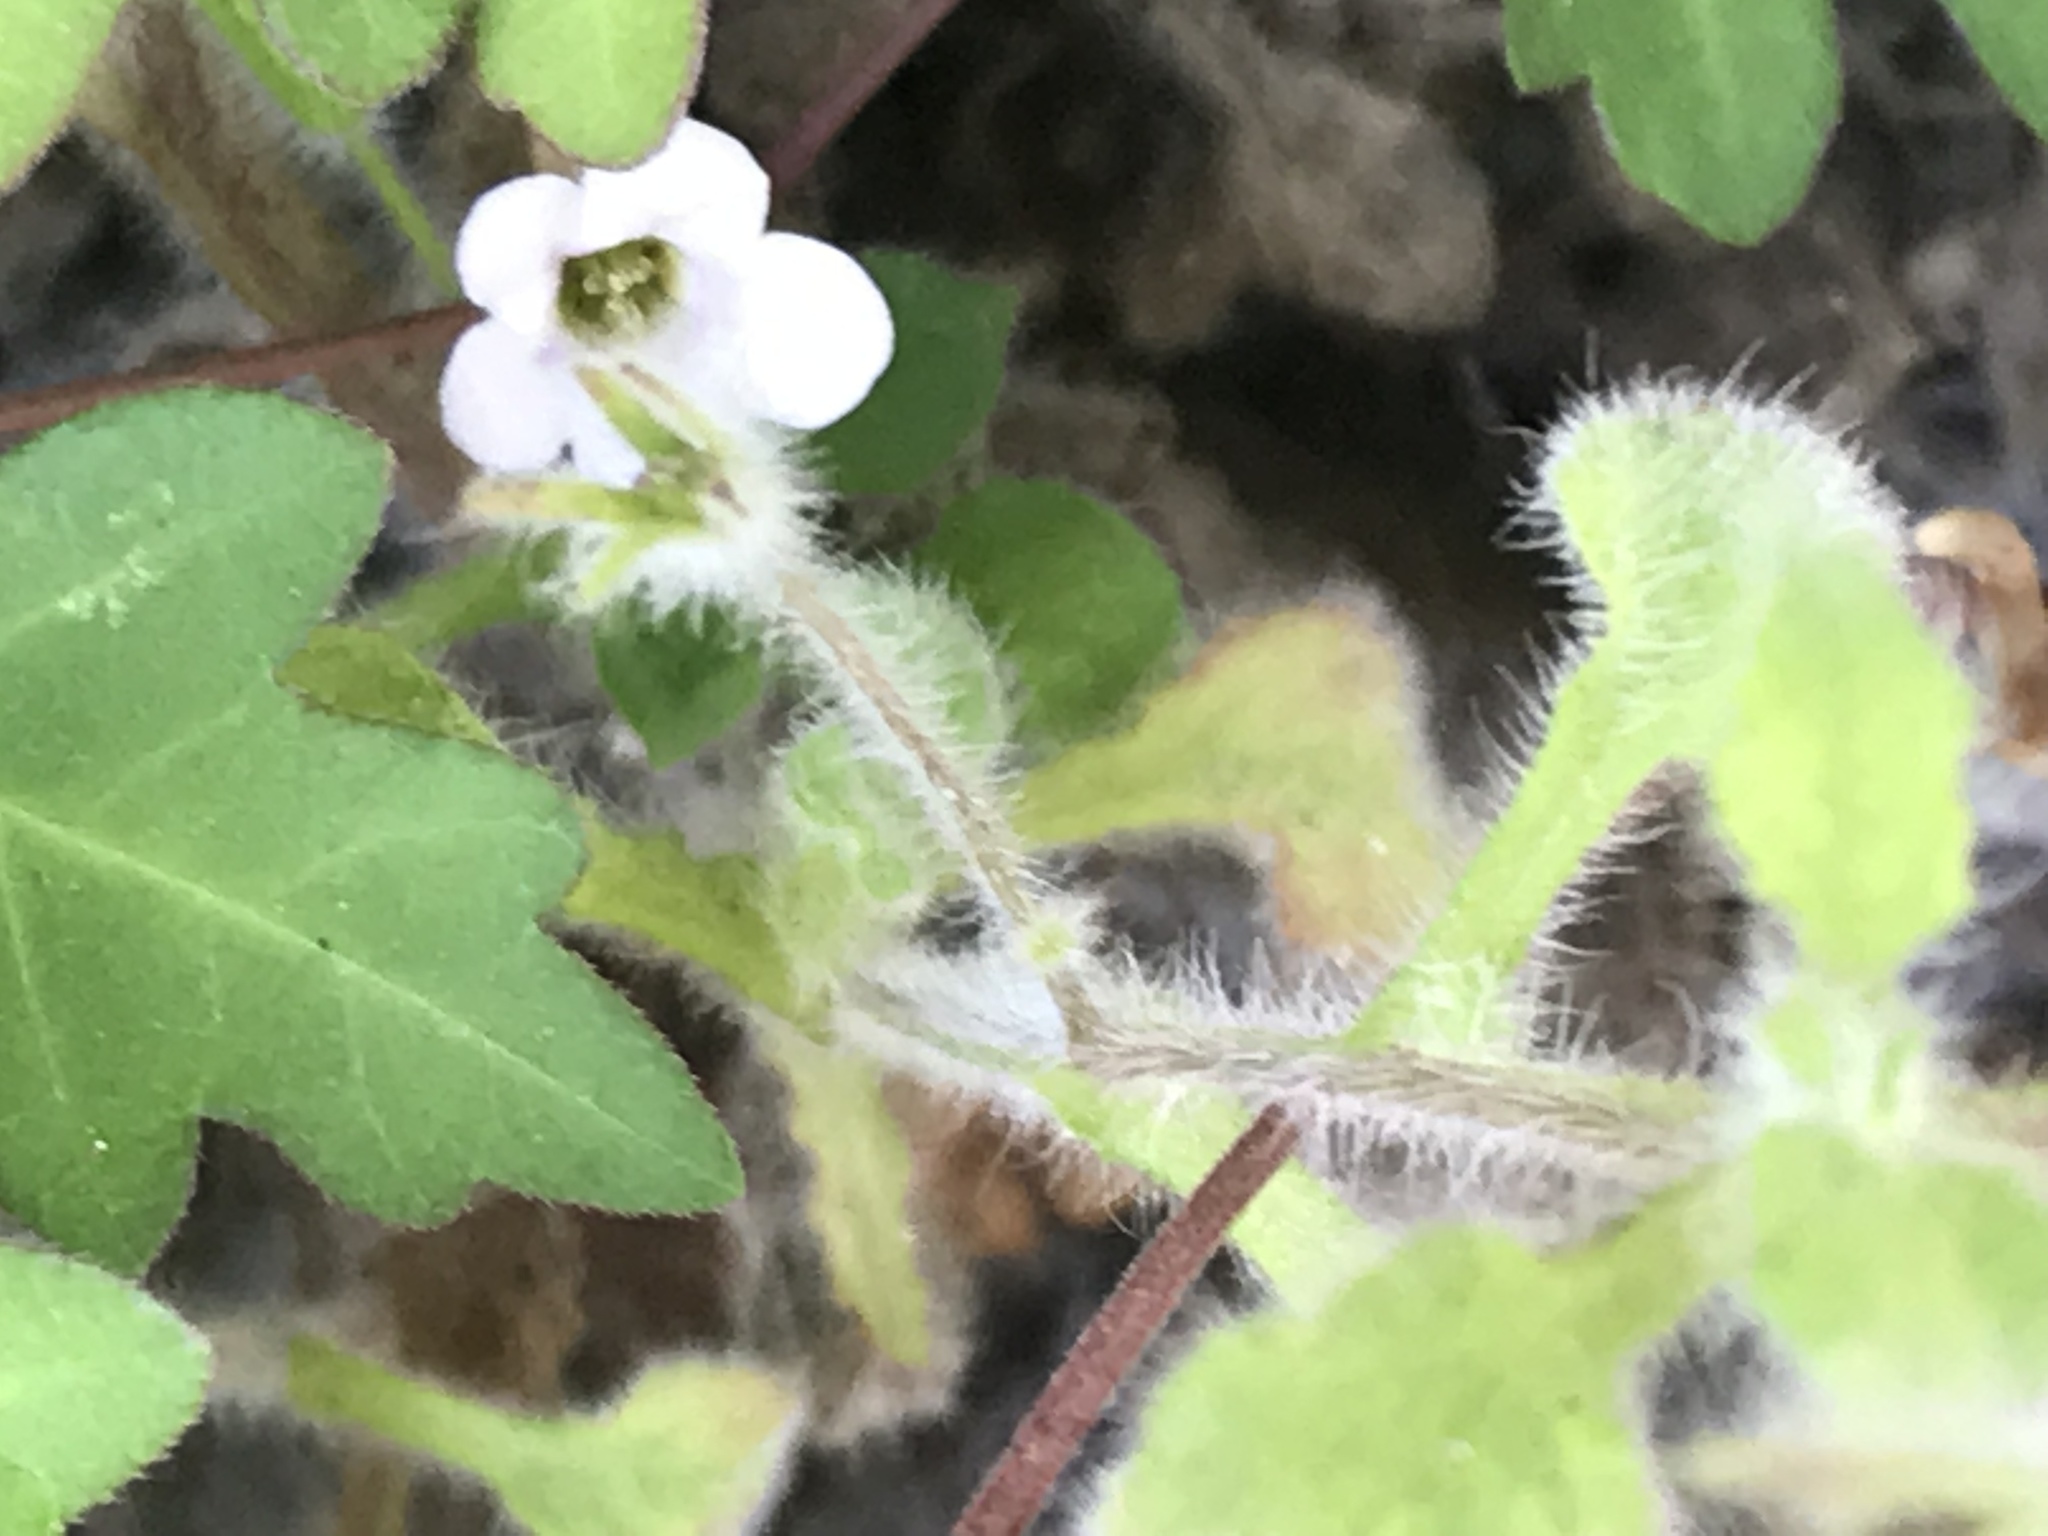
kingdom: Plantae
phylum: Tracheophyta
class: Magnoliopsida
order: Boraginales
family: Namaceae
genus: Nama
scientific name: Nama jamaicensis
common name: Jamaicanweed
